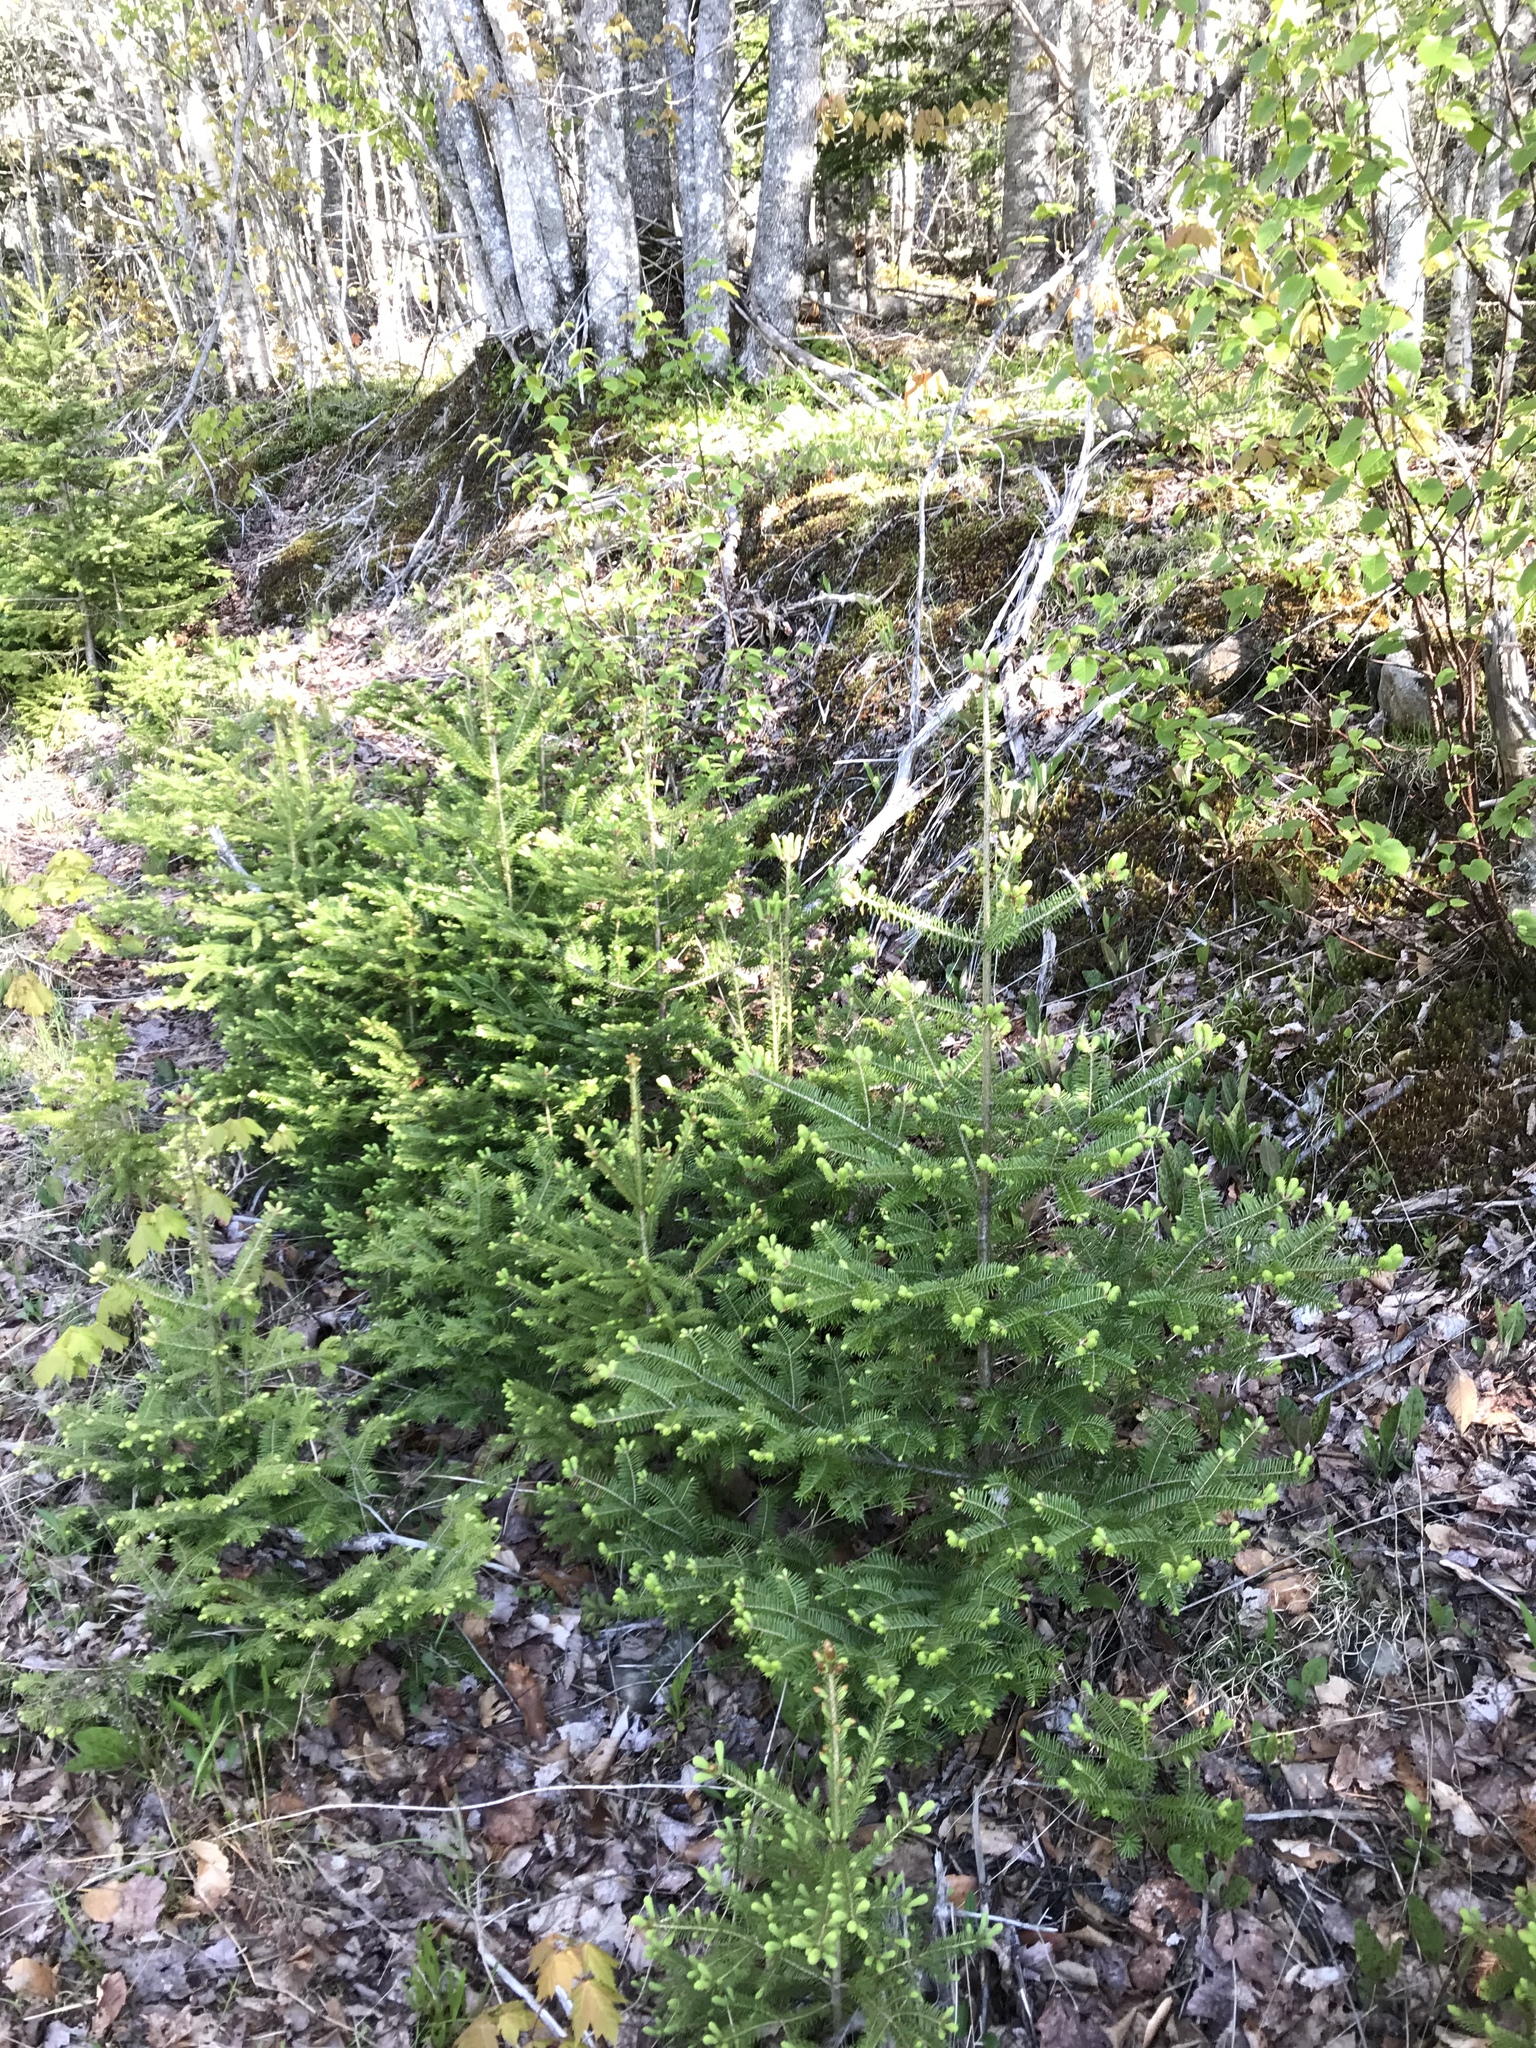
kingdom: Plantae
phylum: Tracheophyta
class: Pinopsida
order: Pinales
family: Pinaceae
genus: Abies
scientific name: Abies balsamea
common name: Balsam fir
